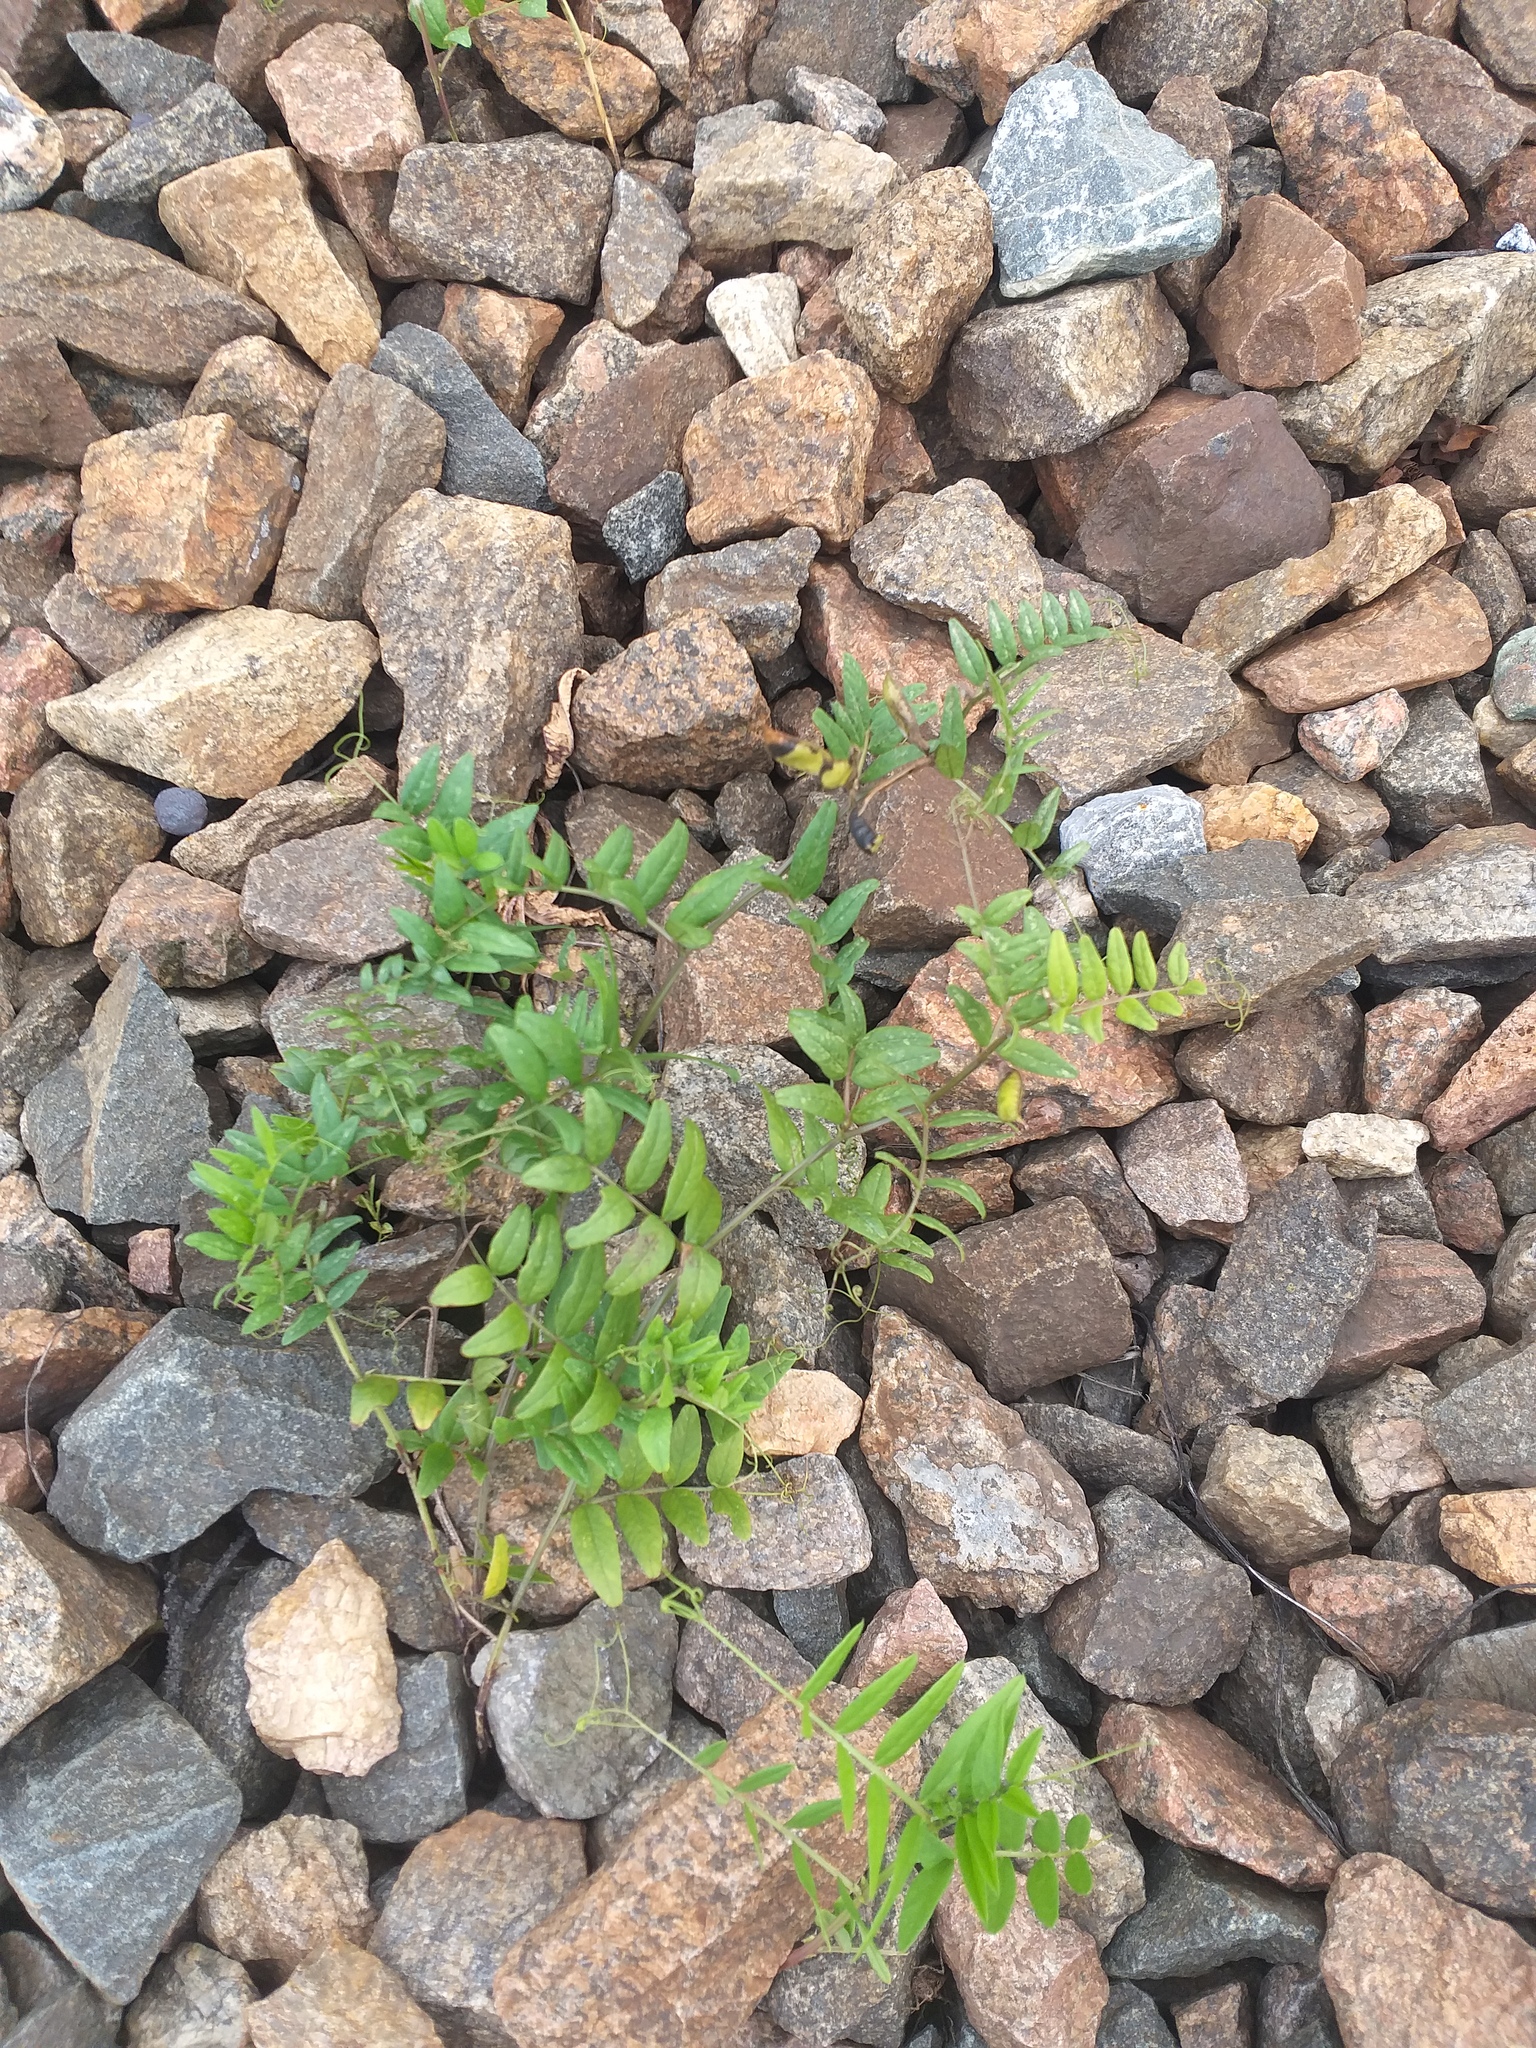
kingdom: Plantae
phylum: Tracheophyta
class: Magnoliopsida
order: Fabales
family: Fabaceae
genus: Vicia
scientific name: Vicia sepium
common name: Bush vetch
